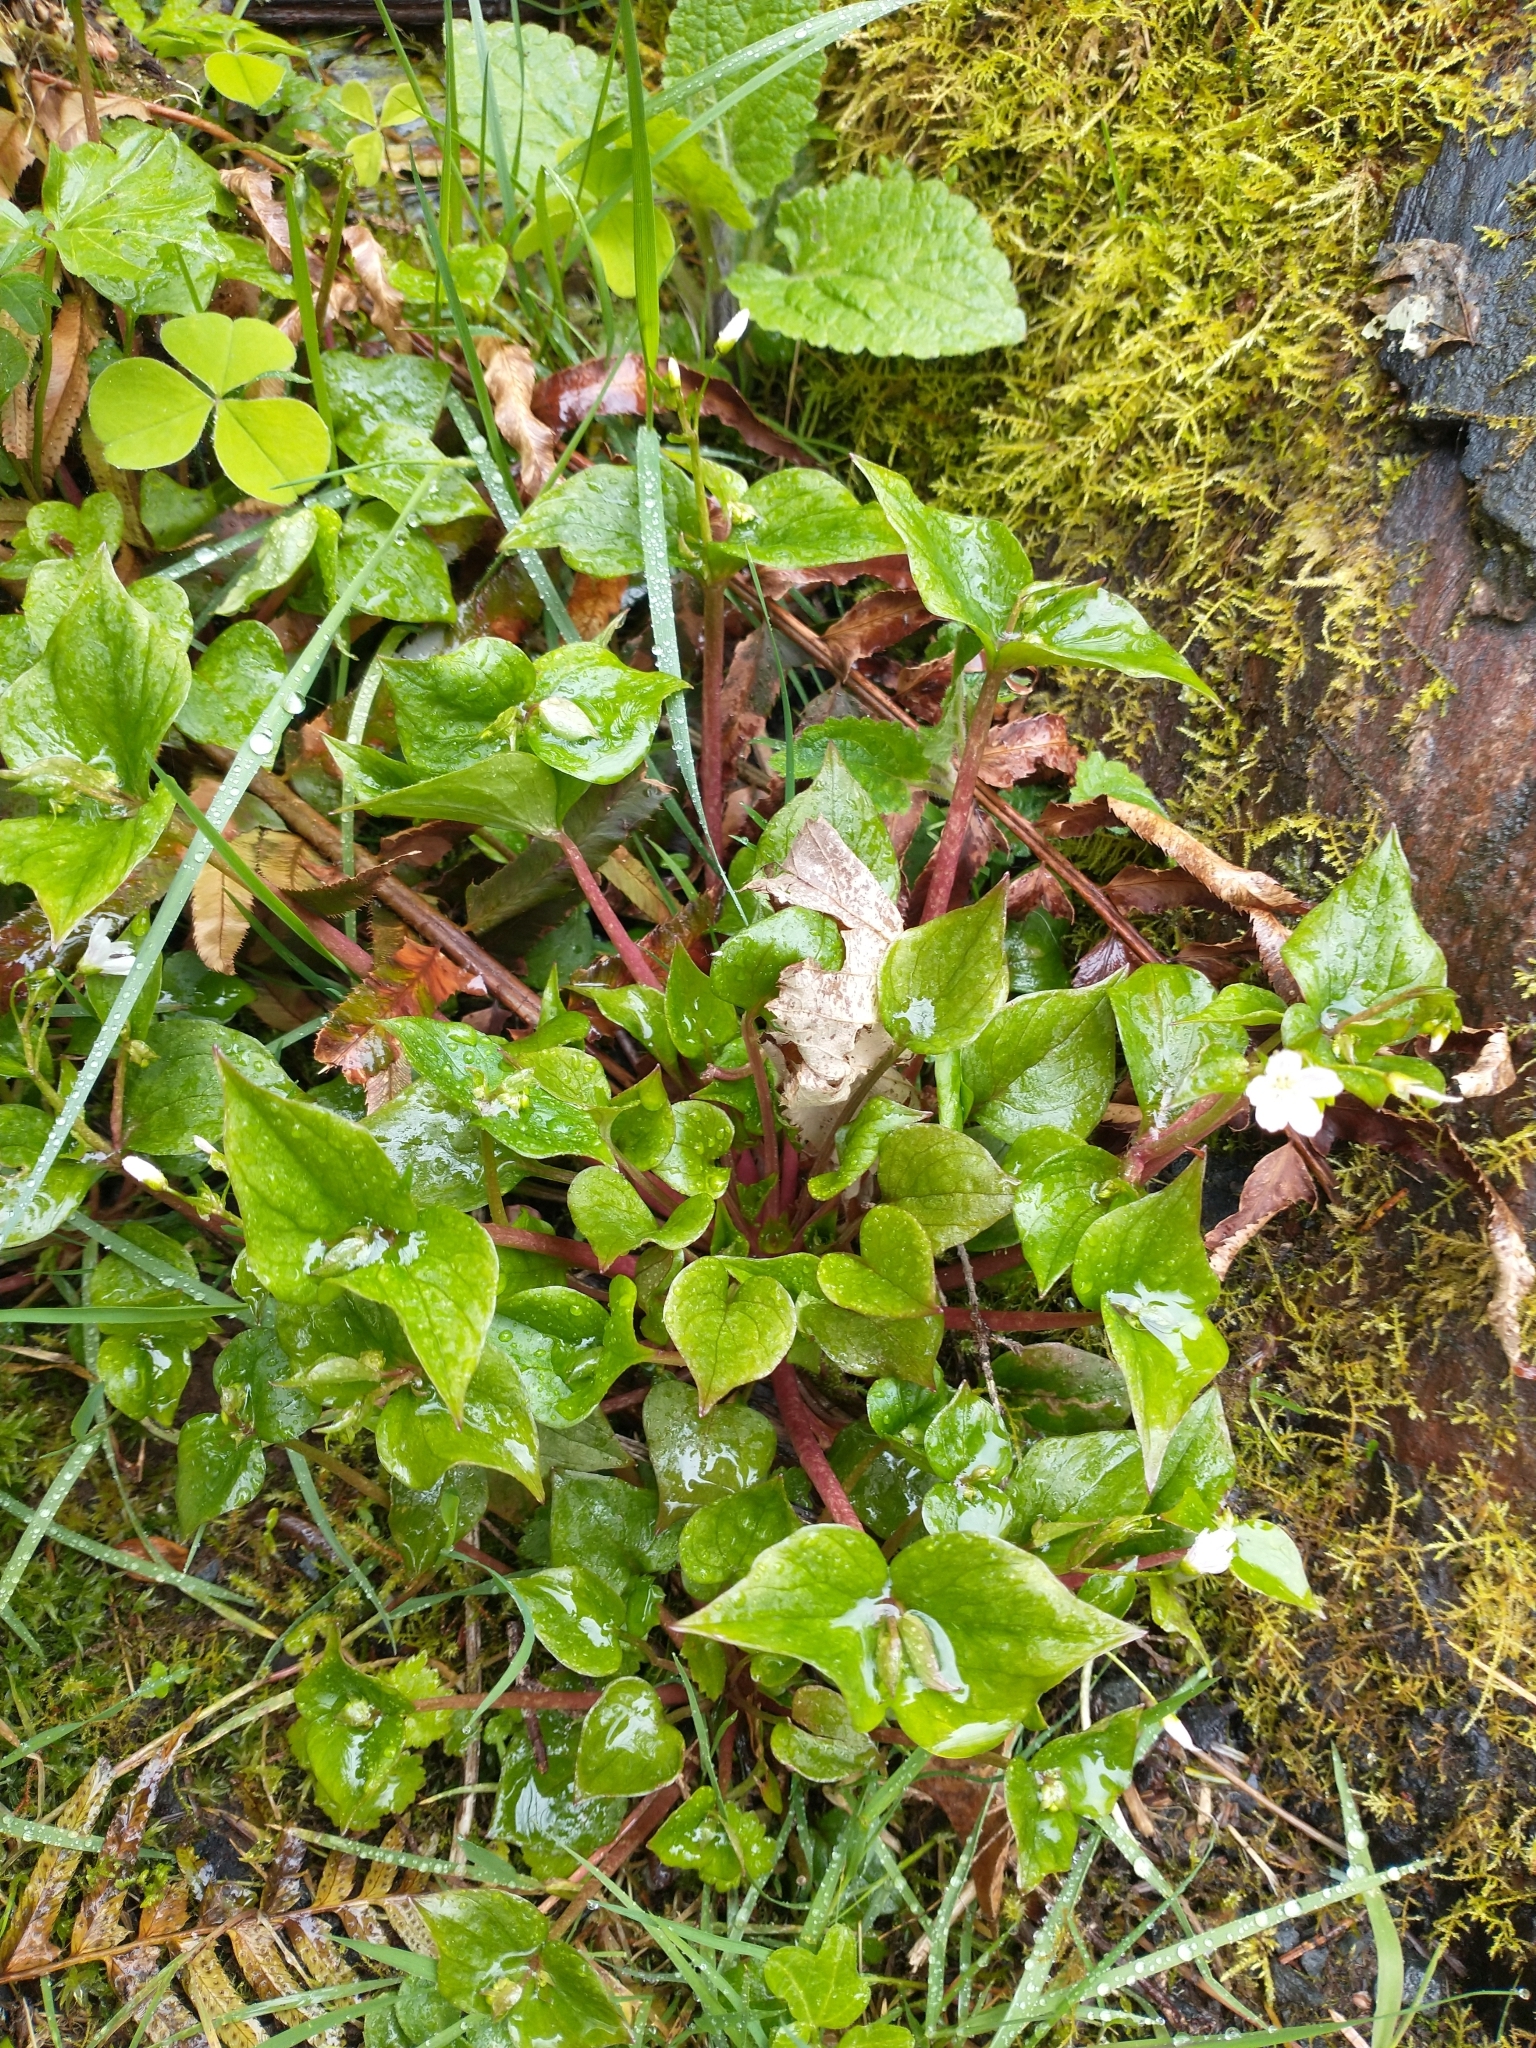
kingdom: Plantae
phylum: Tracheophyta
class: Magnoliopsida
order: Caryophyllales
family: Montiaceae
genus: Claytonia
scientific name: Claytonia sibirica
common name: Pink purslane
